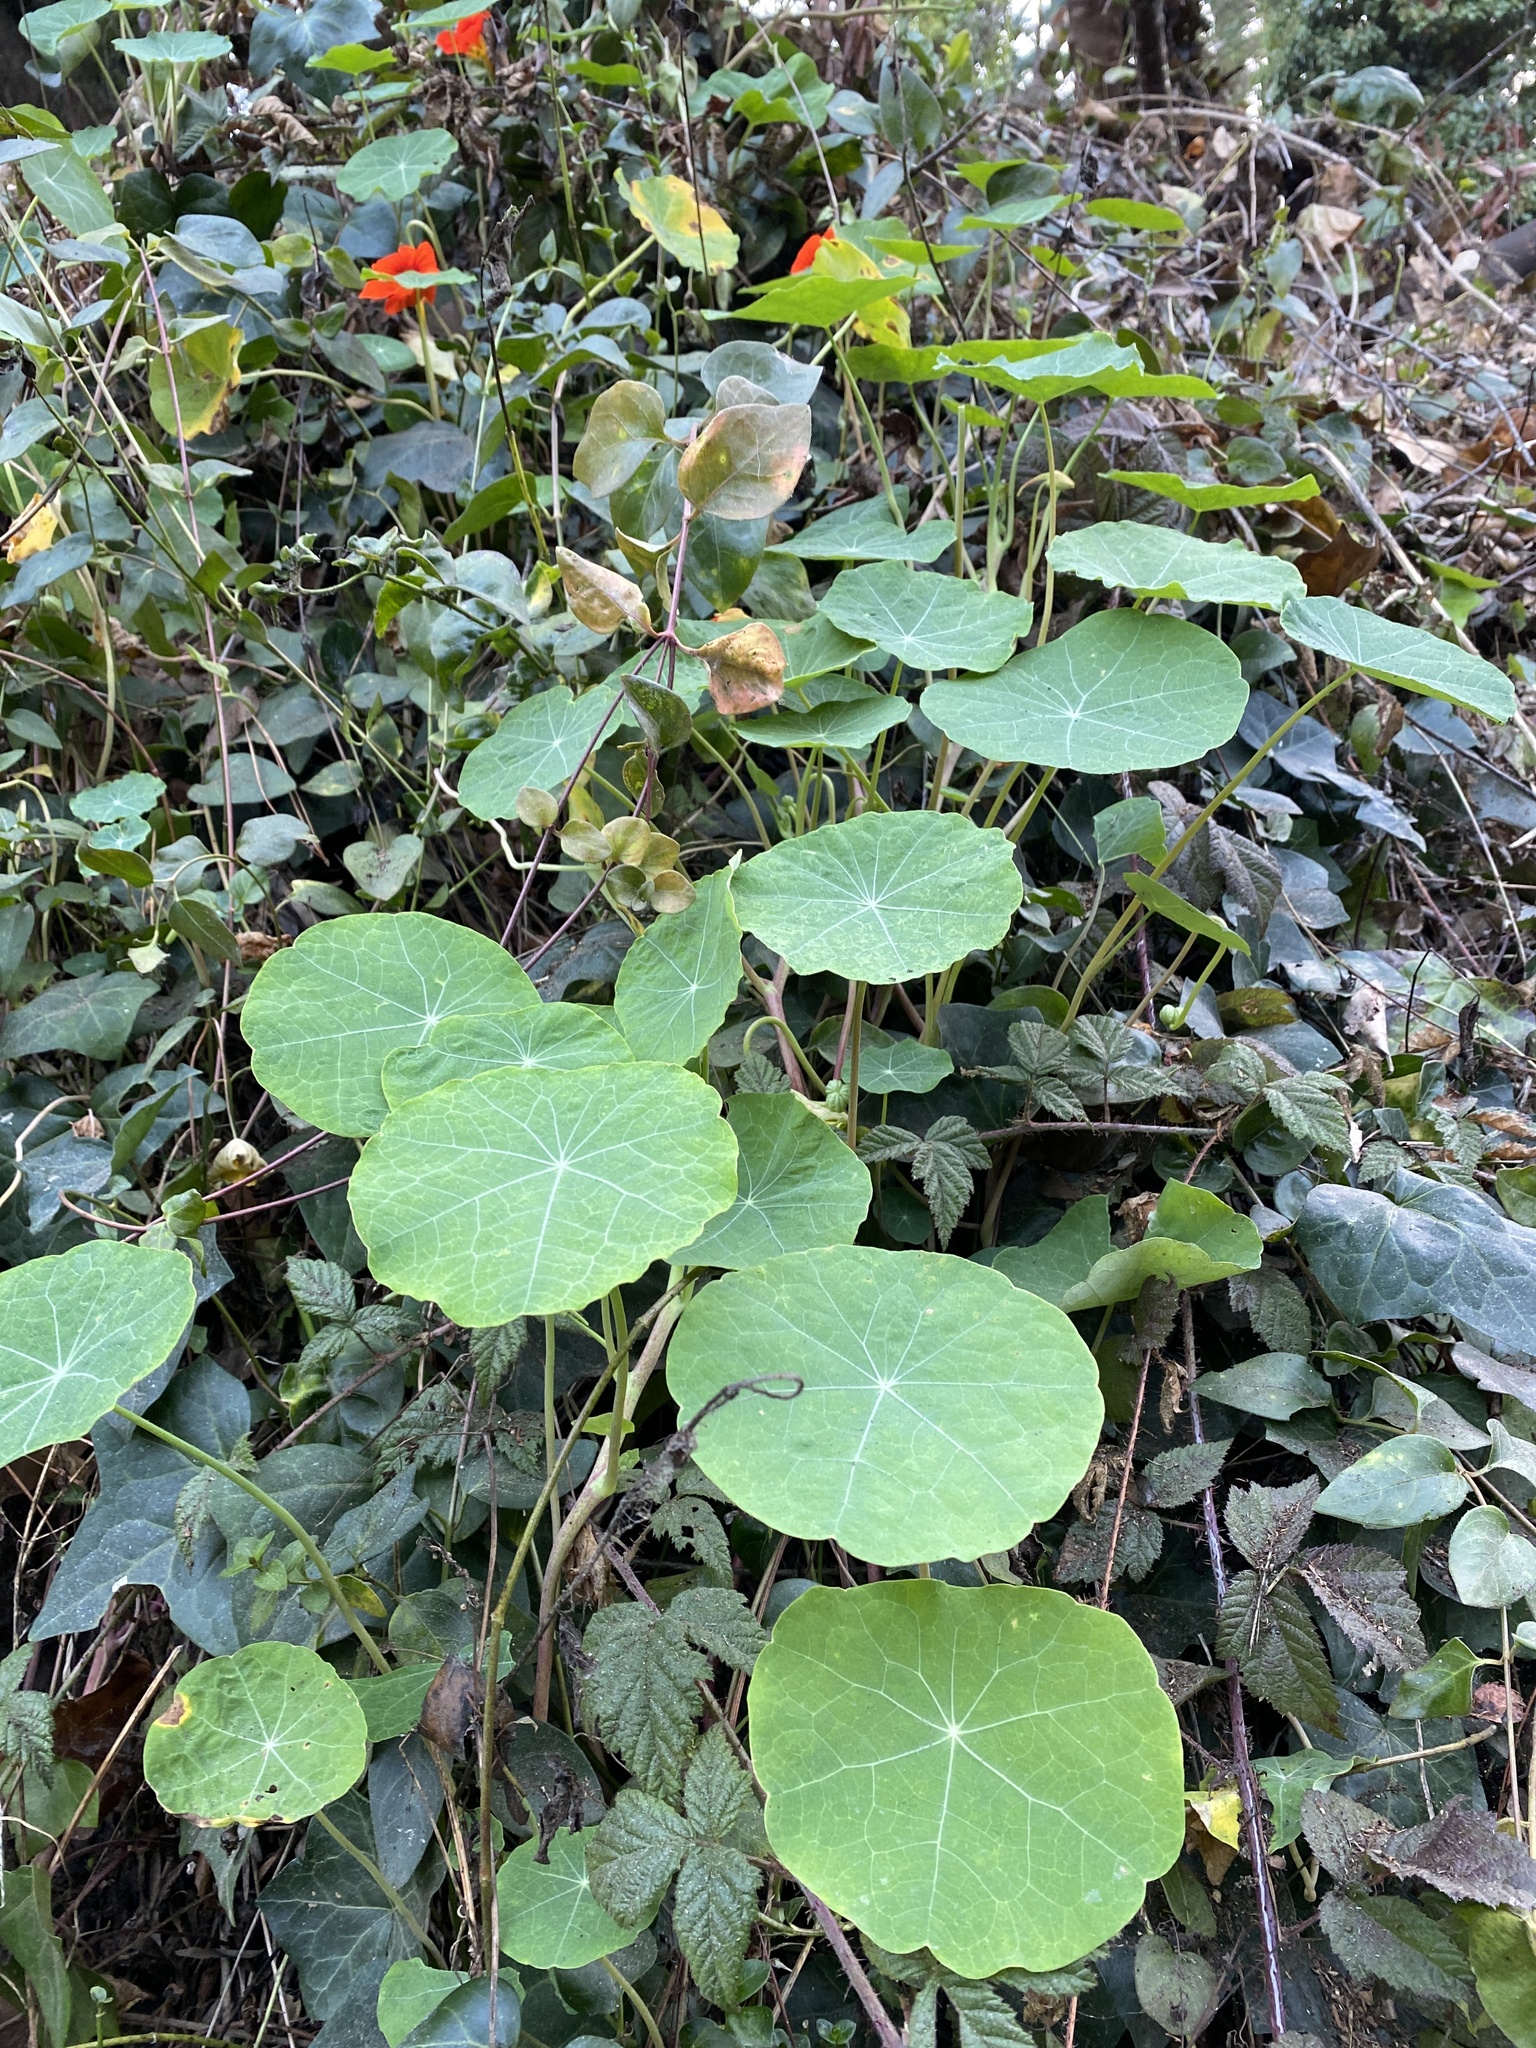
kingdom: Plantae
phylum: Tracheophyta
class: Magnoliopsida
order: Brassicales
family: Tropaeolaceae
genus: Tropaeolum
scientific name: Tropaeolum majus
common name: Nasturtium
